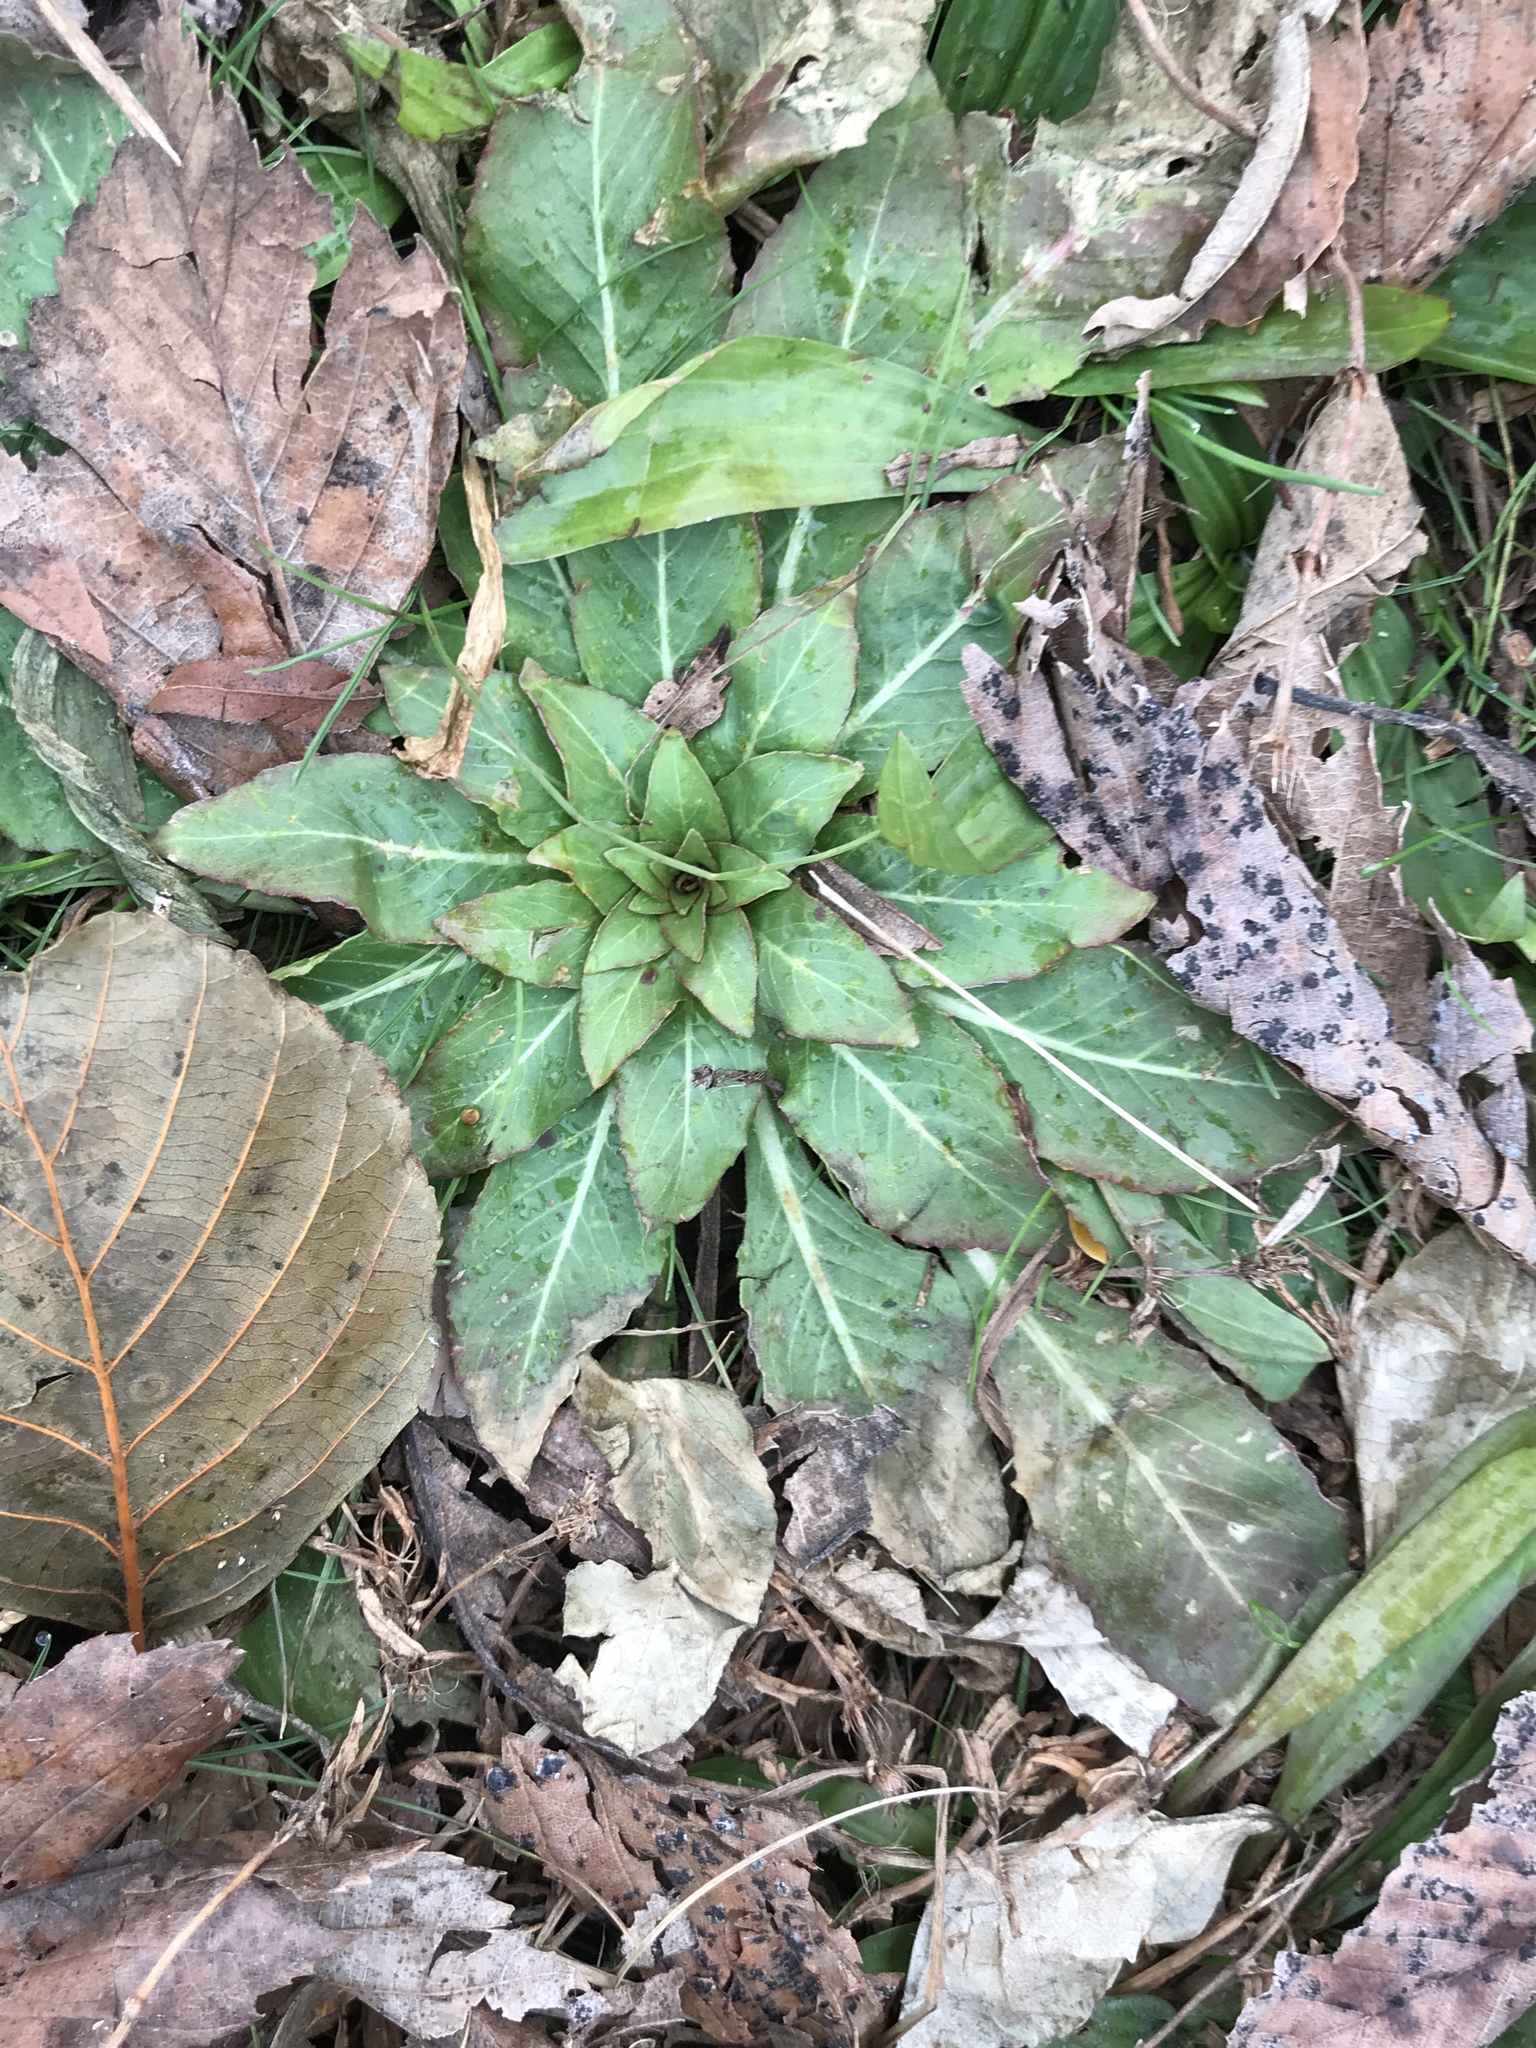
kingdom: Plantae
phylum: Tracheophyta
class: Magnoliopsida
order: Myrtales
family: Onagraceae
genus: Oenothera
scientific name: Oenothera biennis
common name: Common evening-primrose
